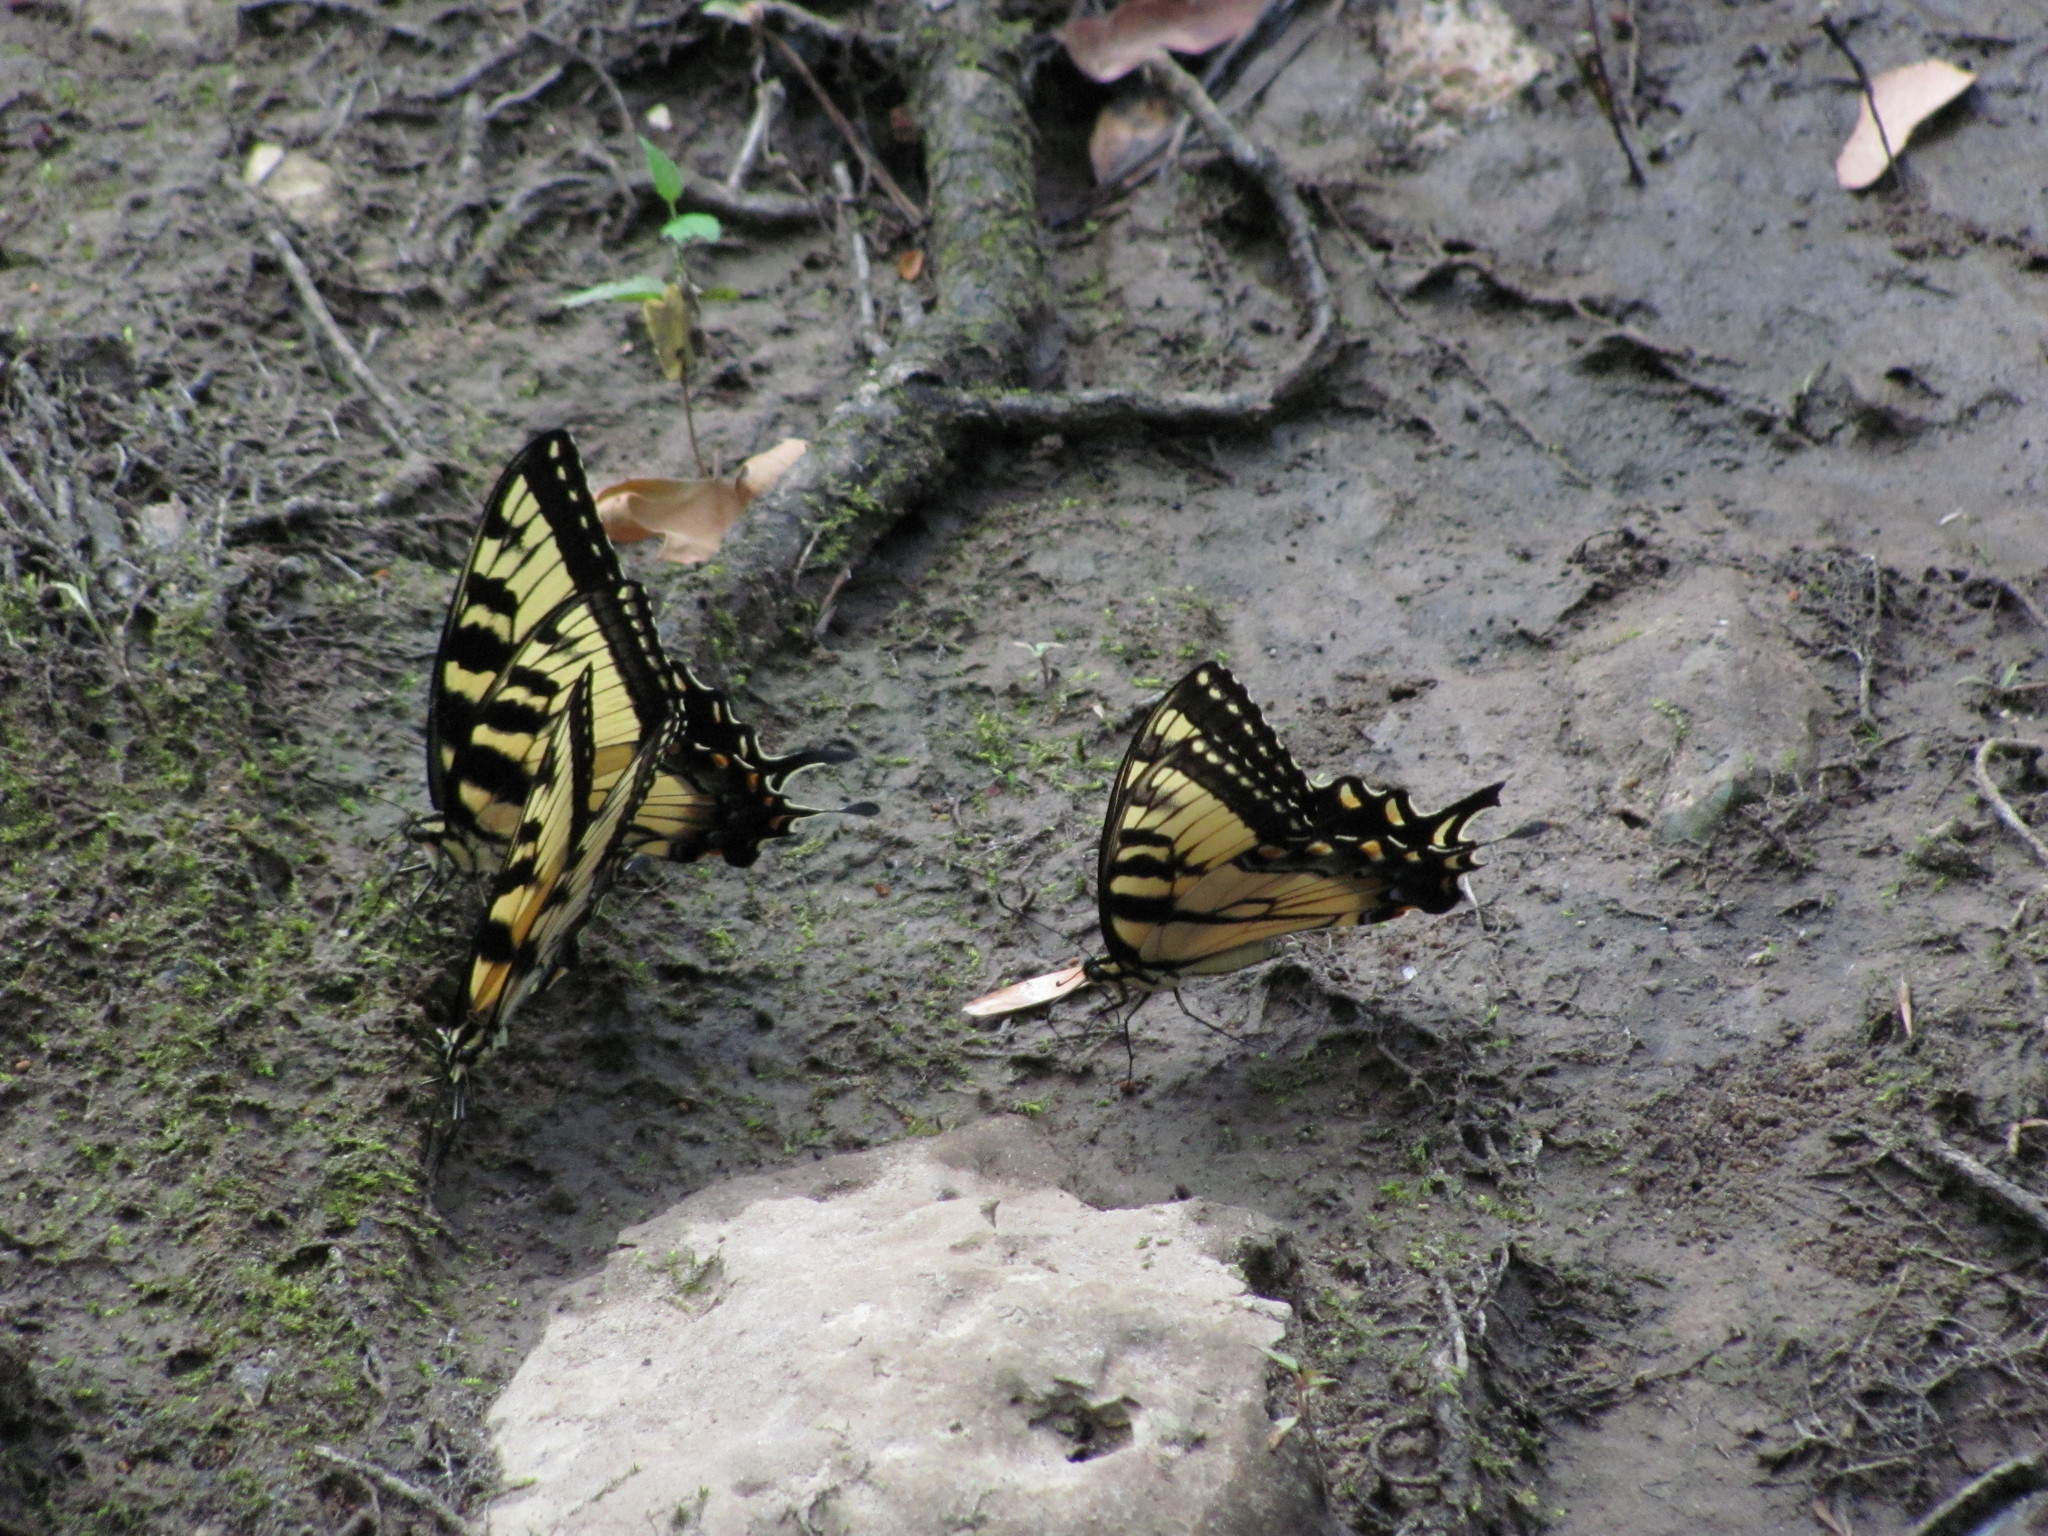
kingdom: Animalia
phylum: Arthropoda
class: Insecta
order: Lepidoptera
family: Papilionidae
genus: Papilio
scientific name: Papilio glaucus
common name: Tiger swallowtail
